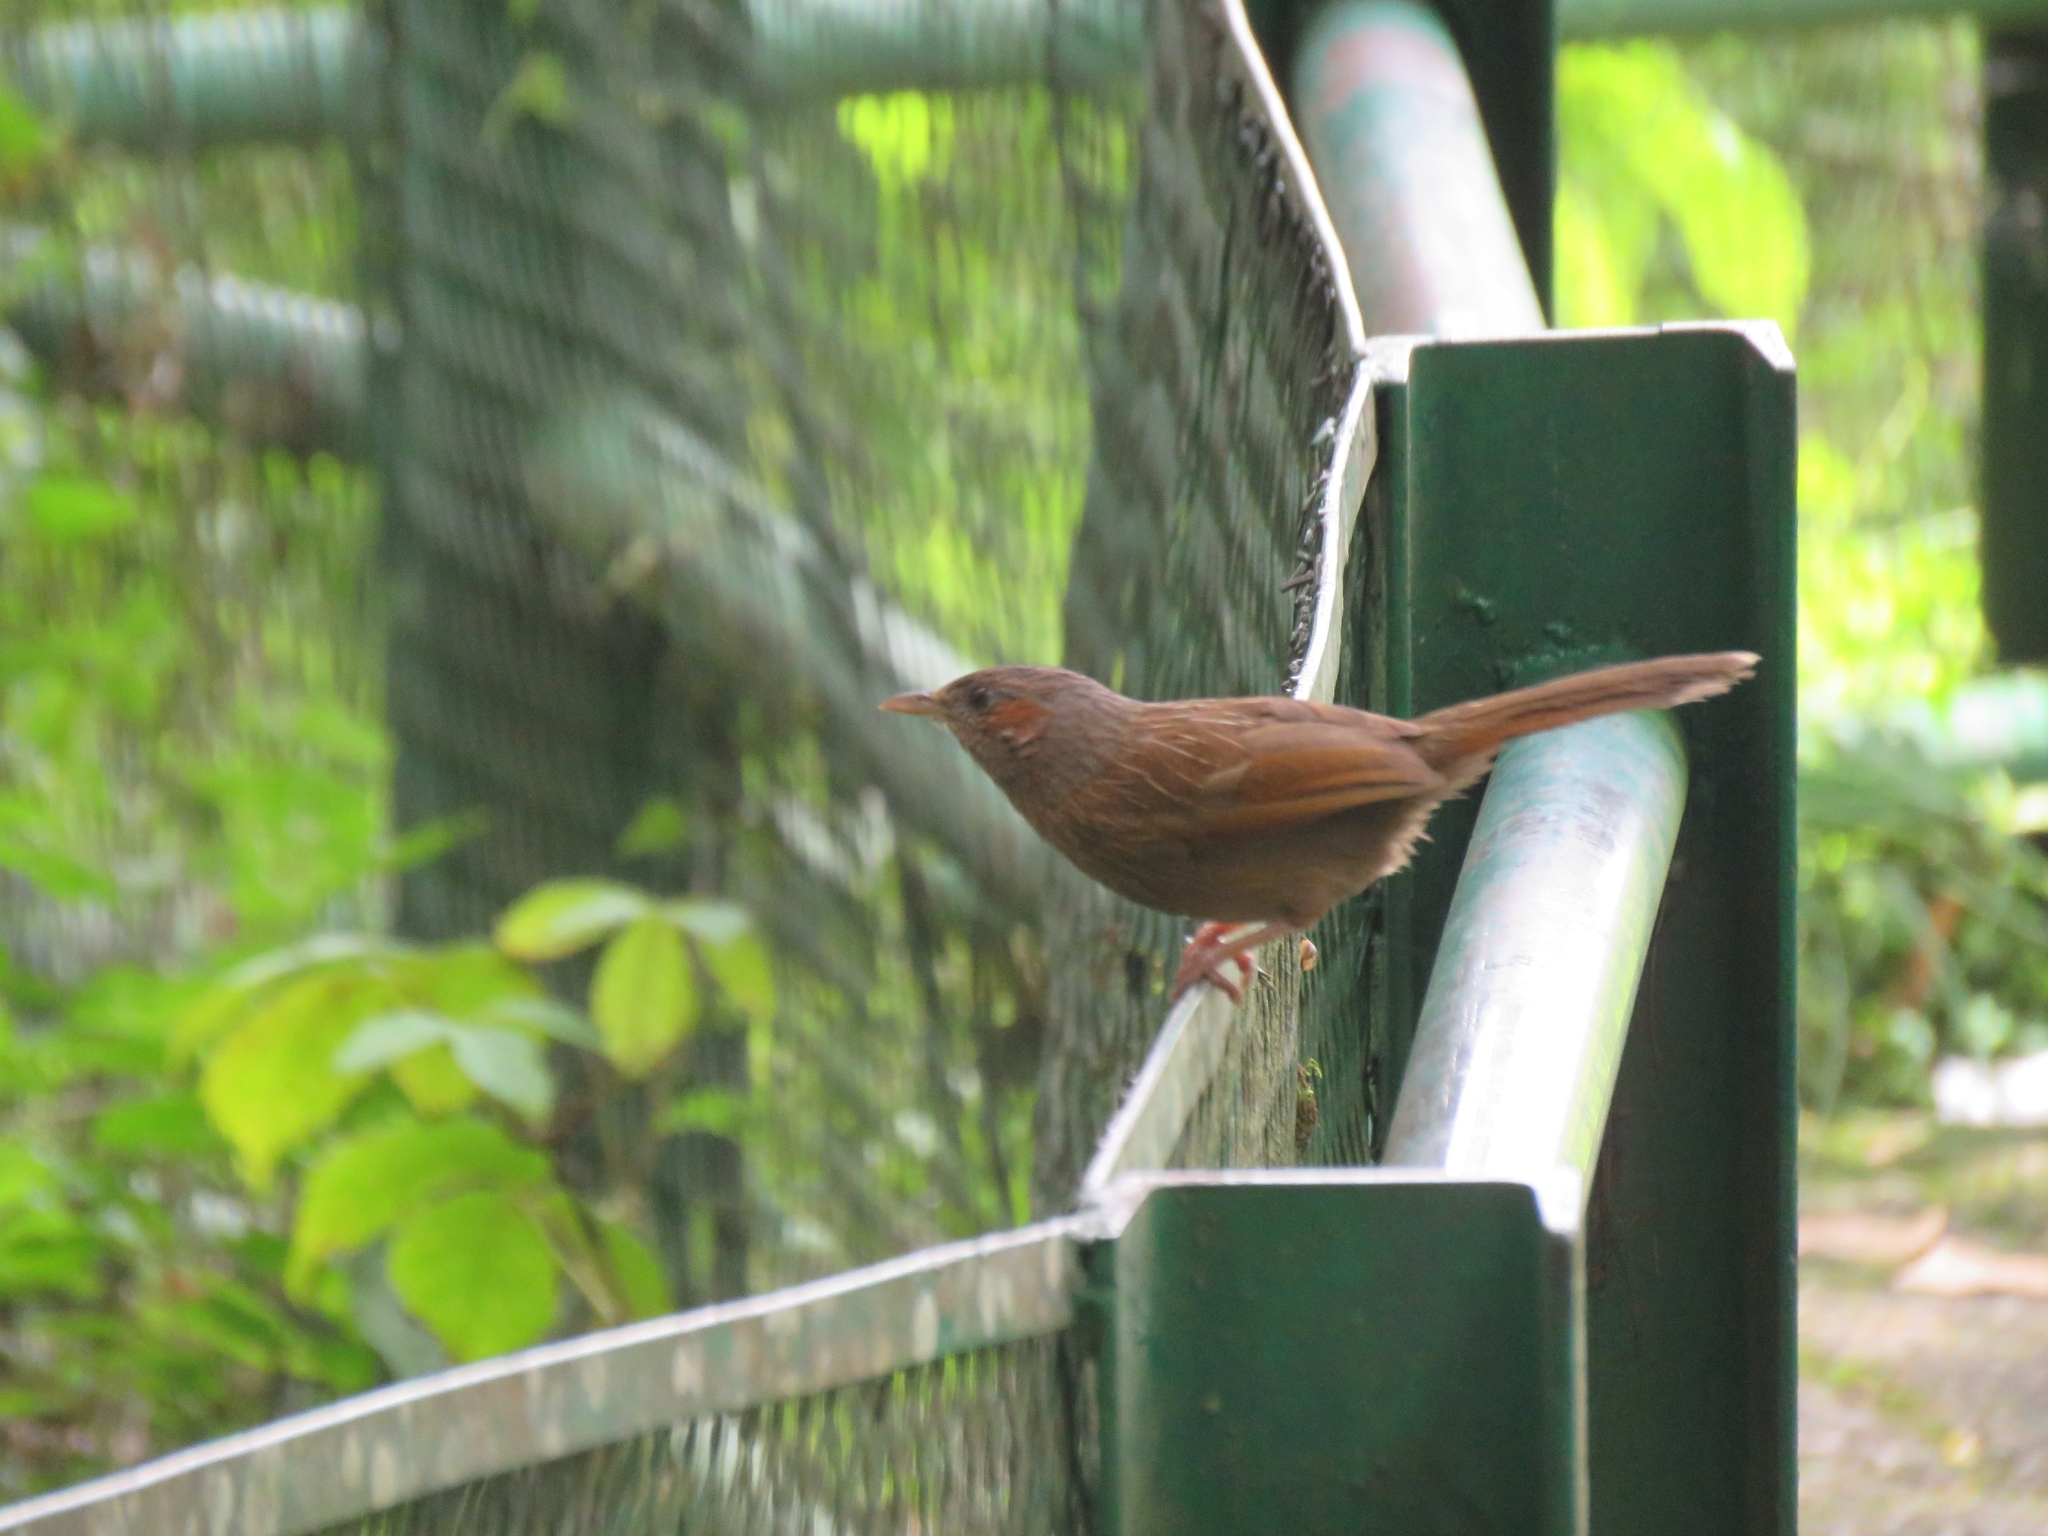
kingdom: Animalia
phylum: Chordata
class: Aves
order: Passeriformes
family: Leiothrichidae
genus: Trochalopteron
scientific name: Trochalopteron lineatum
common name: Streaked laughingthrush
